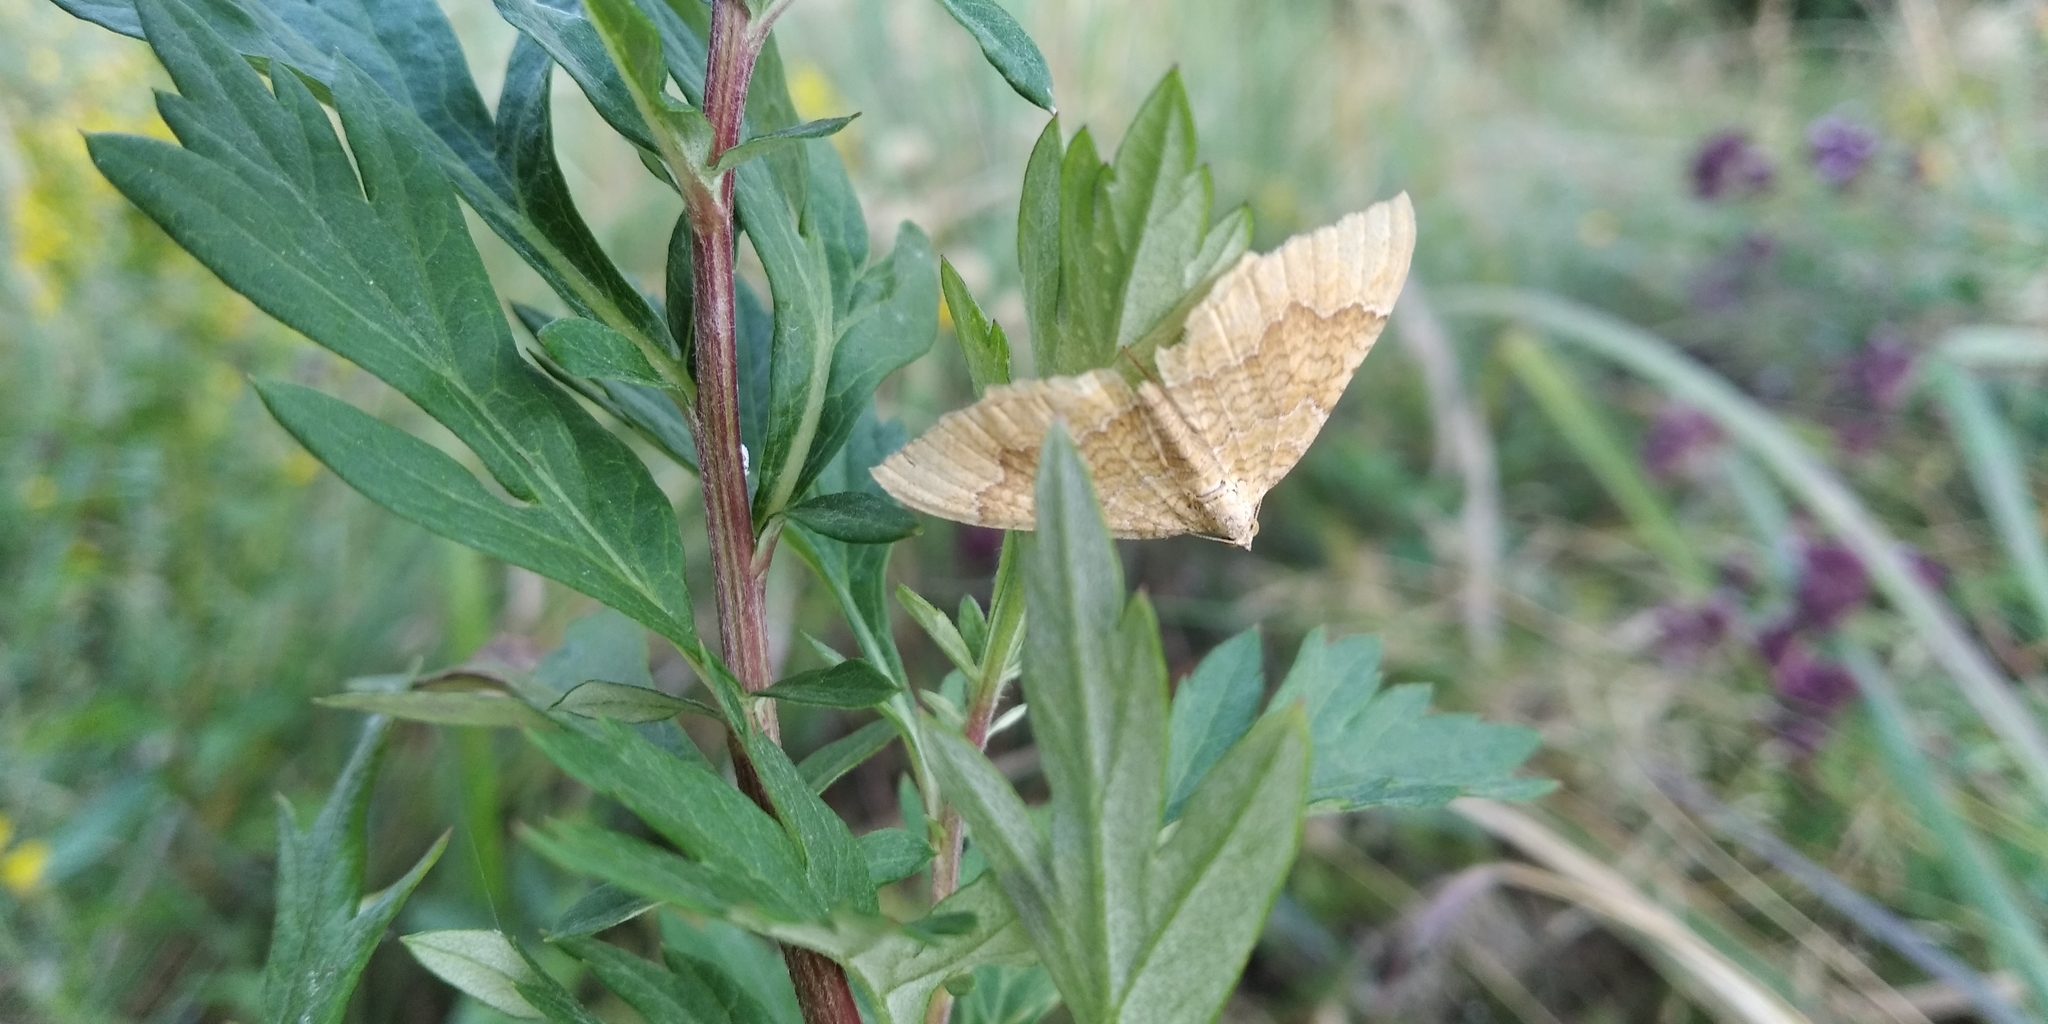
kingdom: Animalia
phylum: Arthropoda
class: Insecta
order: Lepidoptera
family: Geometridae
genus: Camptogramma
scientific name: Camptogramma bilineata
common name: Yellow shell
